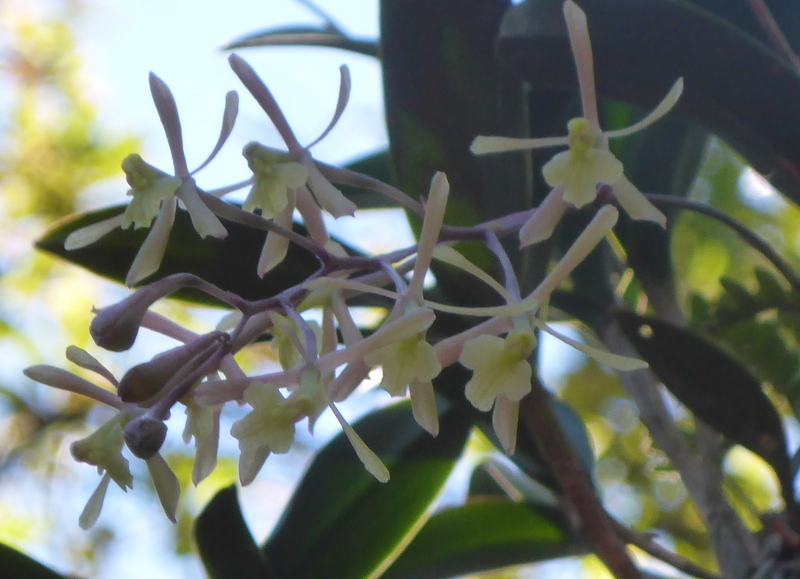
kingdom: Plantae
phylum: Tracheophyta
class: Liliopsida
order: Asparagales
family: Orchidaceae
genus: Epidendrum
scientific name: Epidendrum conopseum
